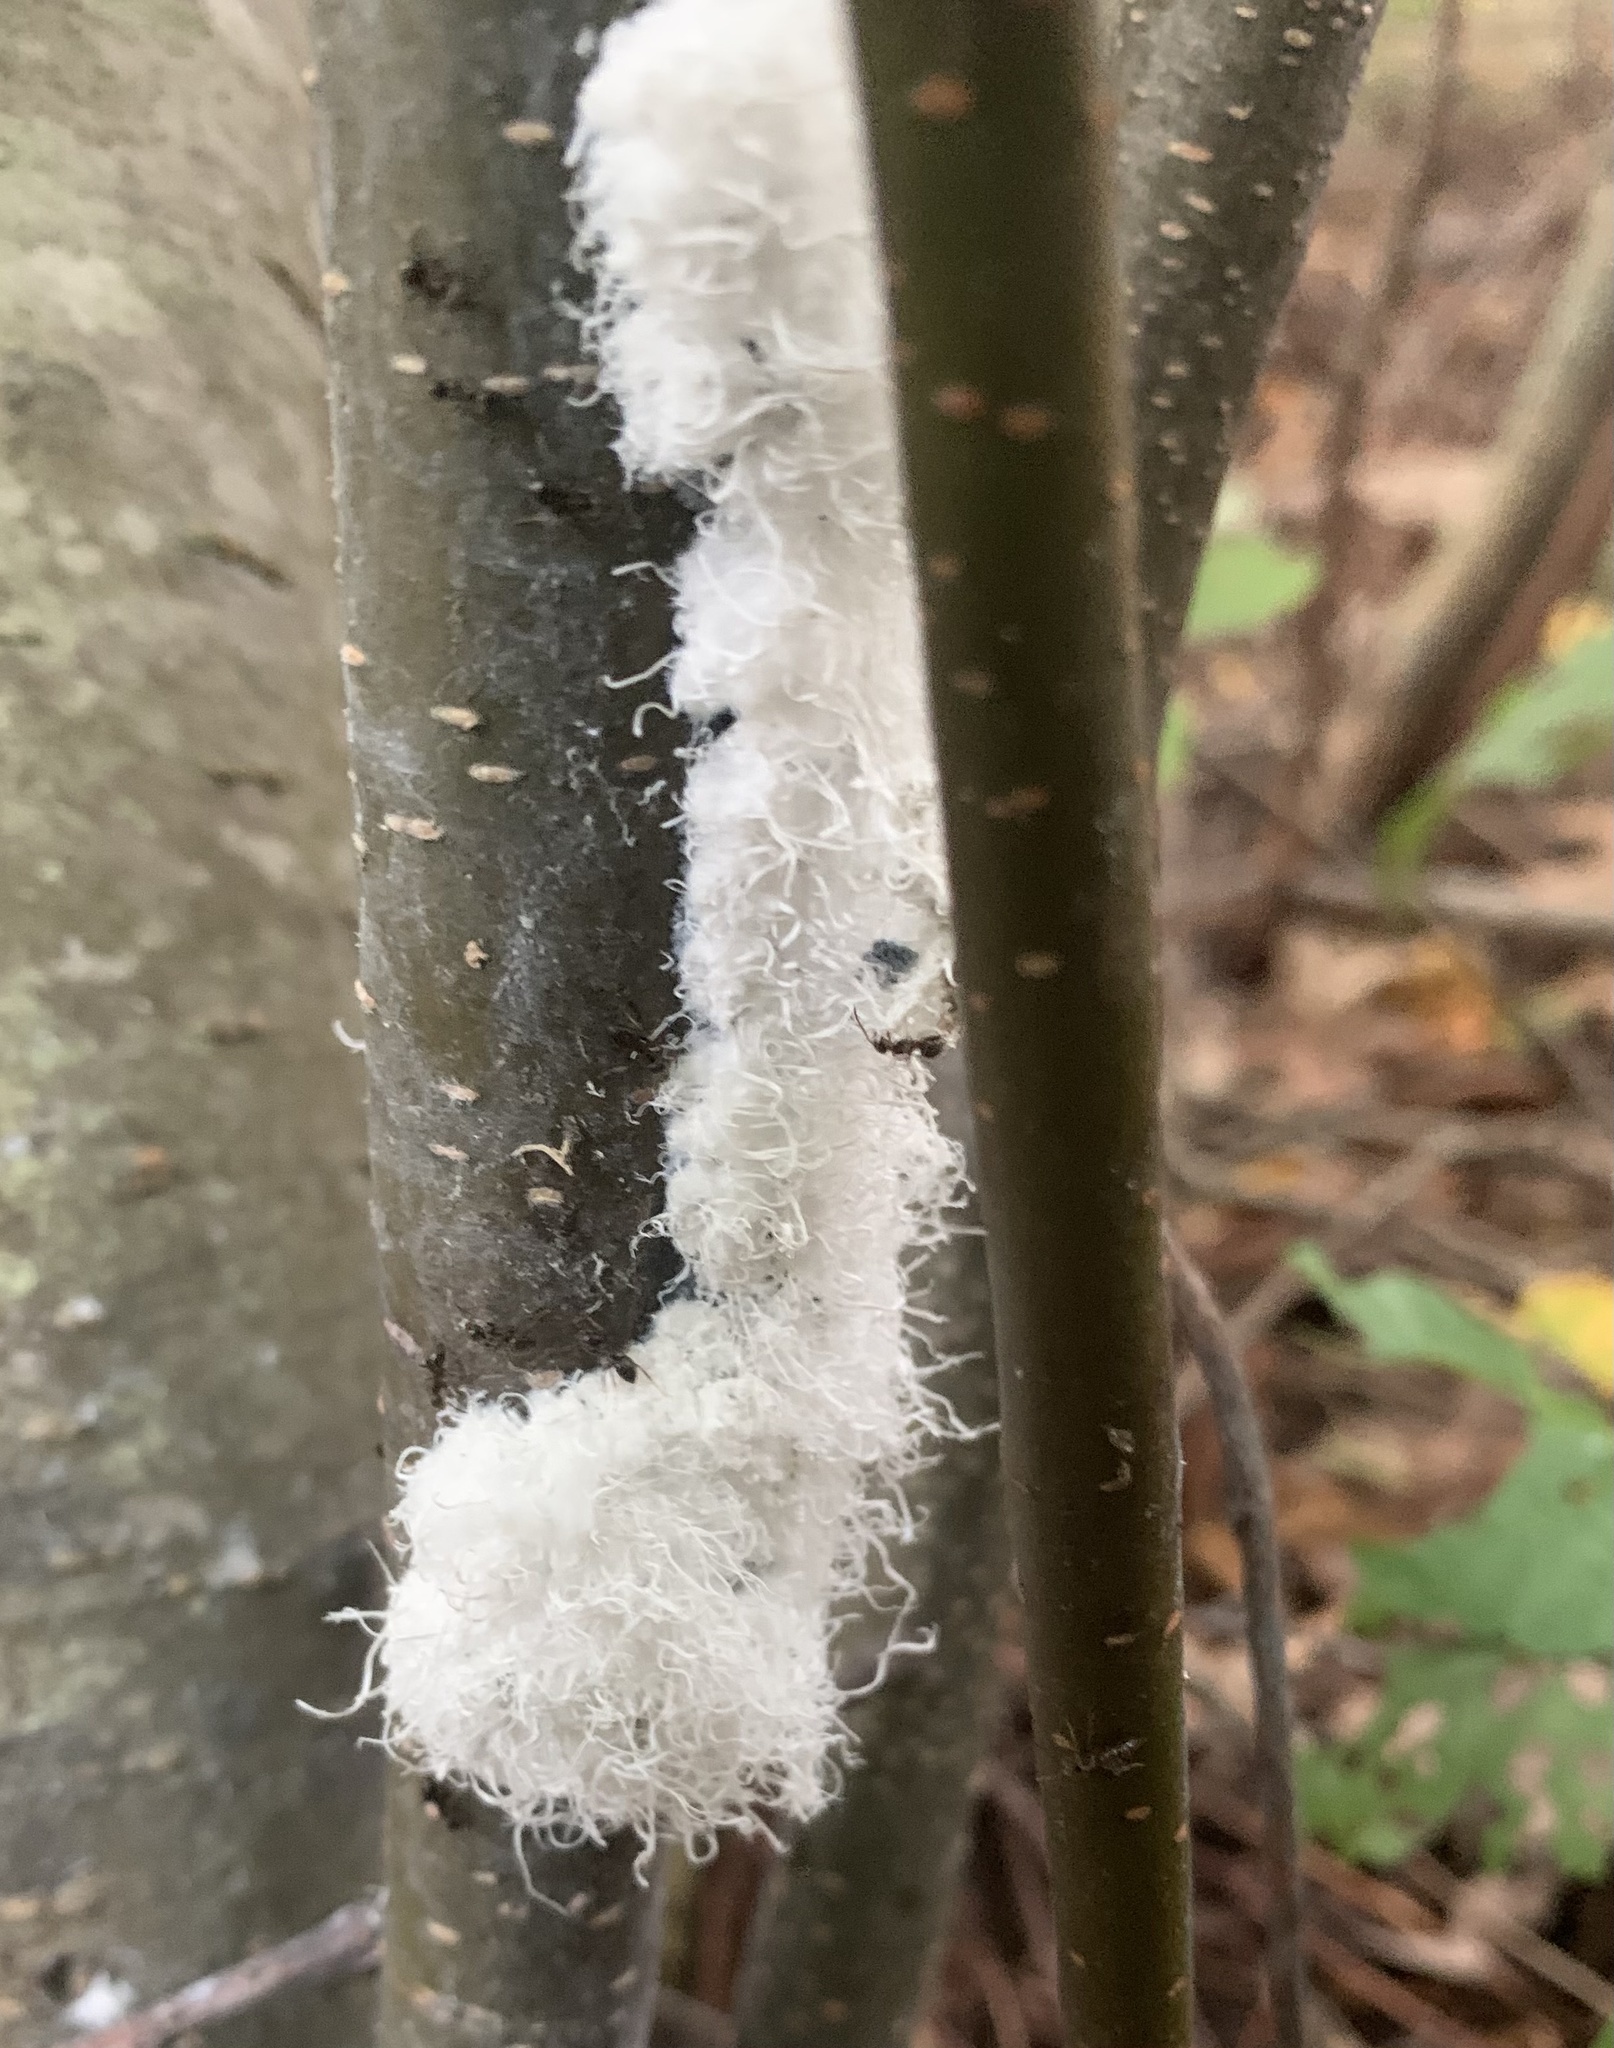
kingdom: Animalia
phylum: Arthropoda
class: Insecta
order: Hemiptera
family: Aphididae
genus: Prociphilus
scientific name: Prociphilus tessellatus
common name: Woolly alder aphid
